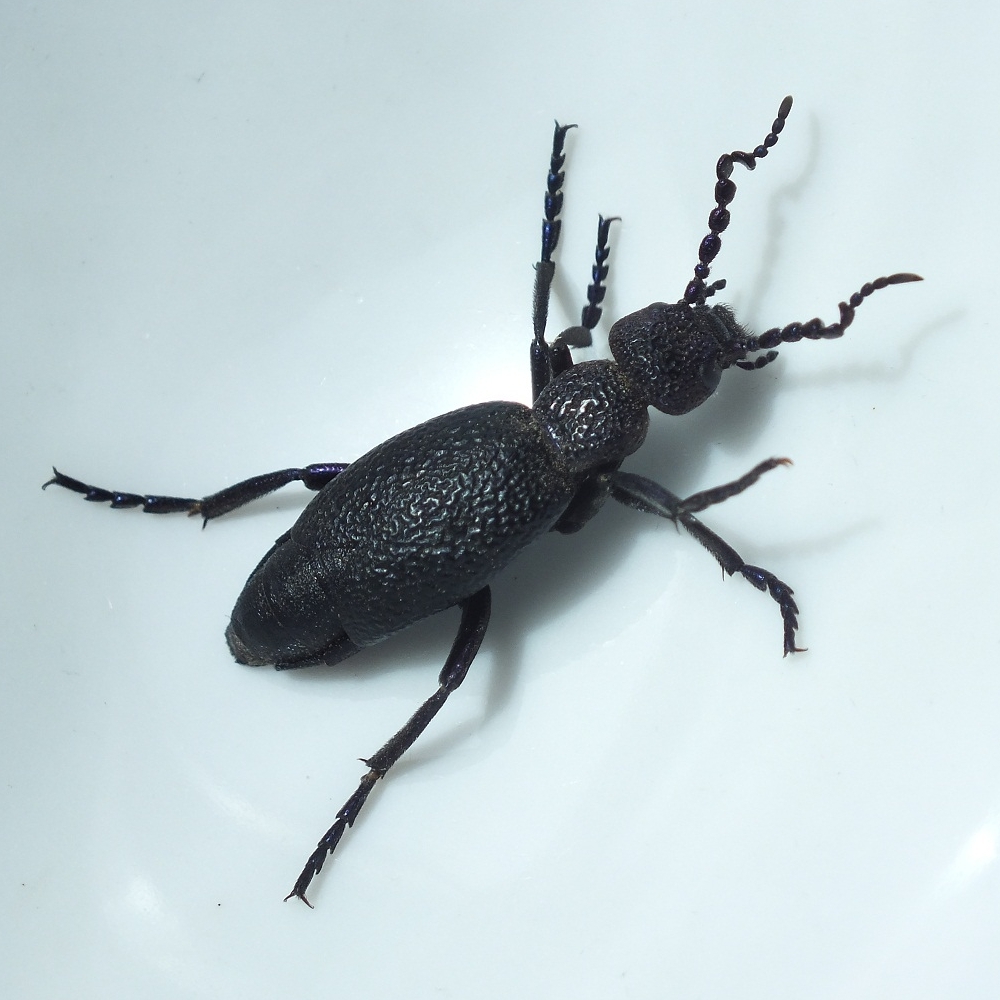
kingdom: Animalia
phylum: Arthropoda
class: Insecta
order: Coleoptera
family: Meloidae
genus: Meloe
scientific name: Meloe proscarabaeus
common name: Black oil-beetle
